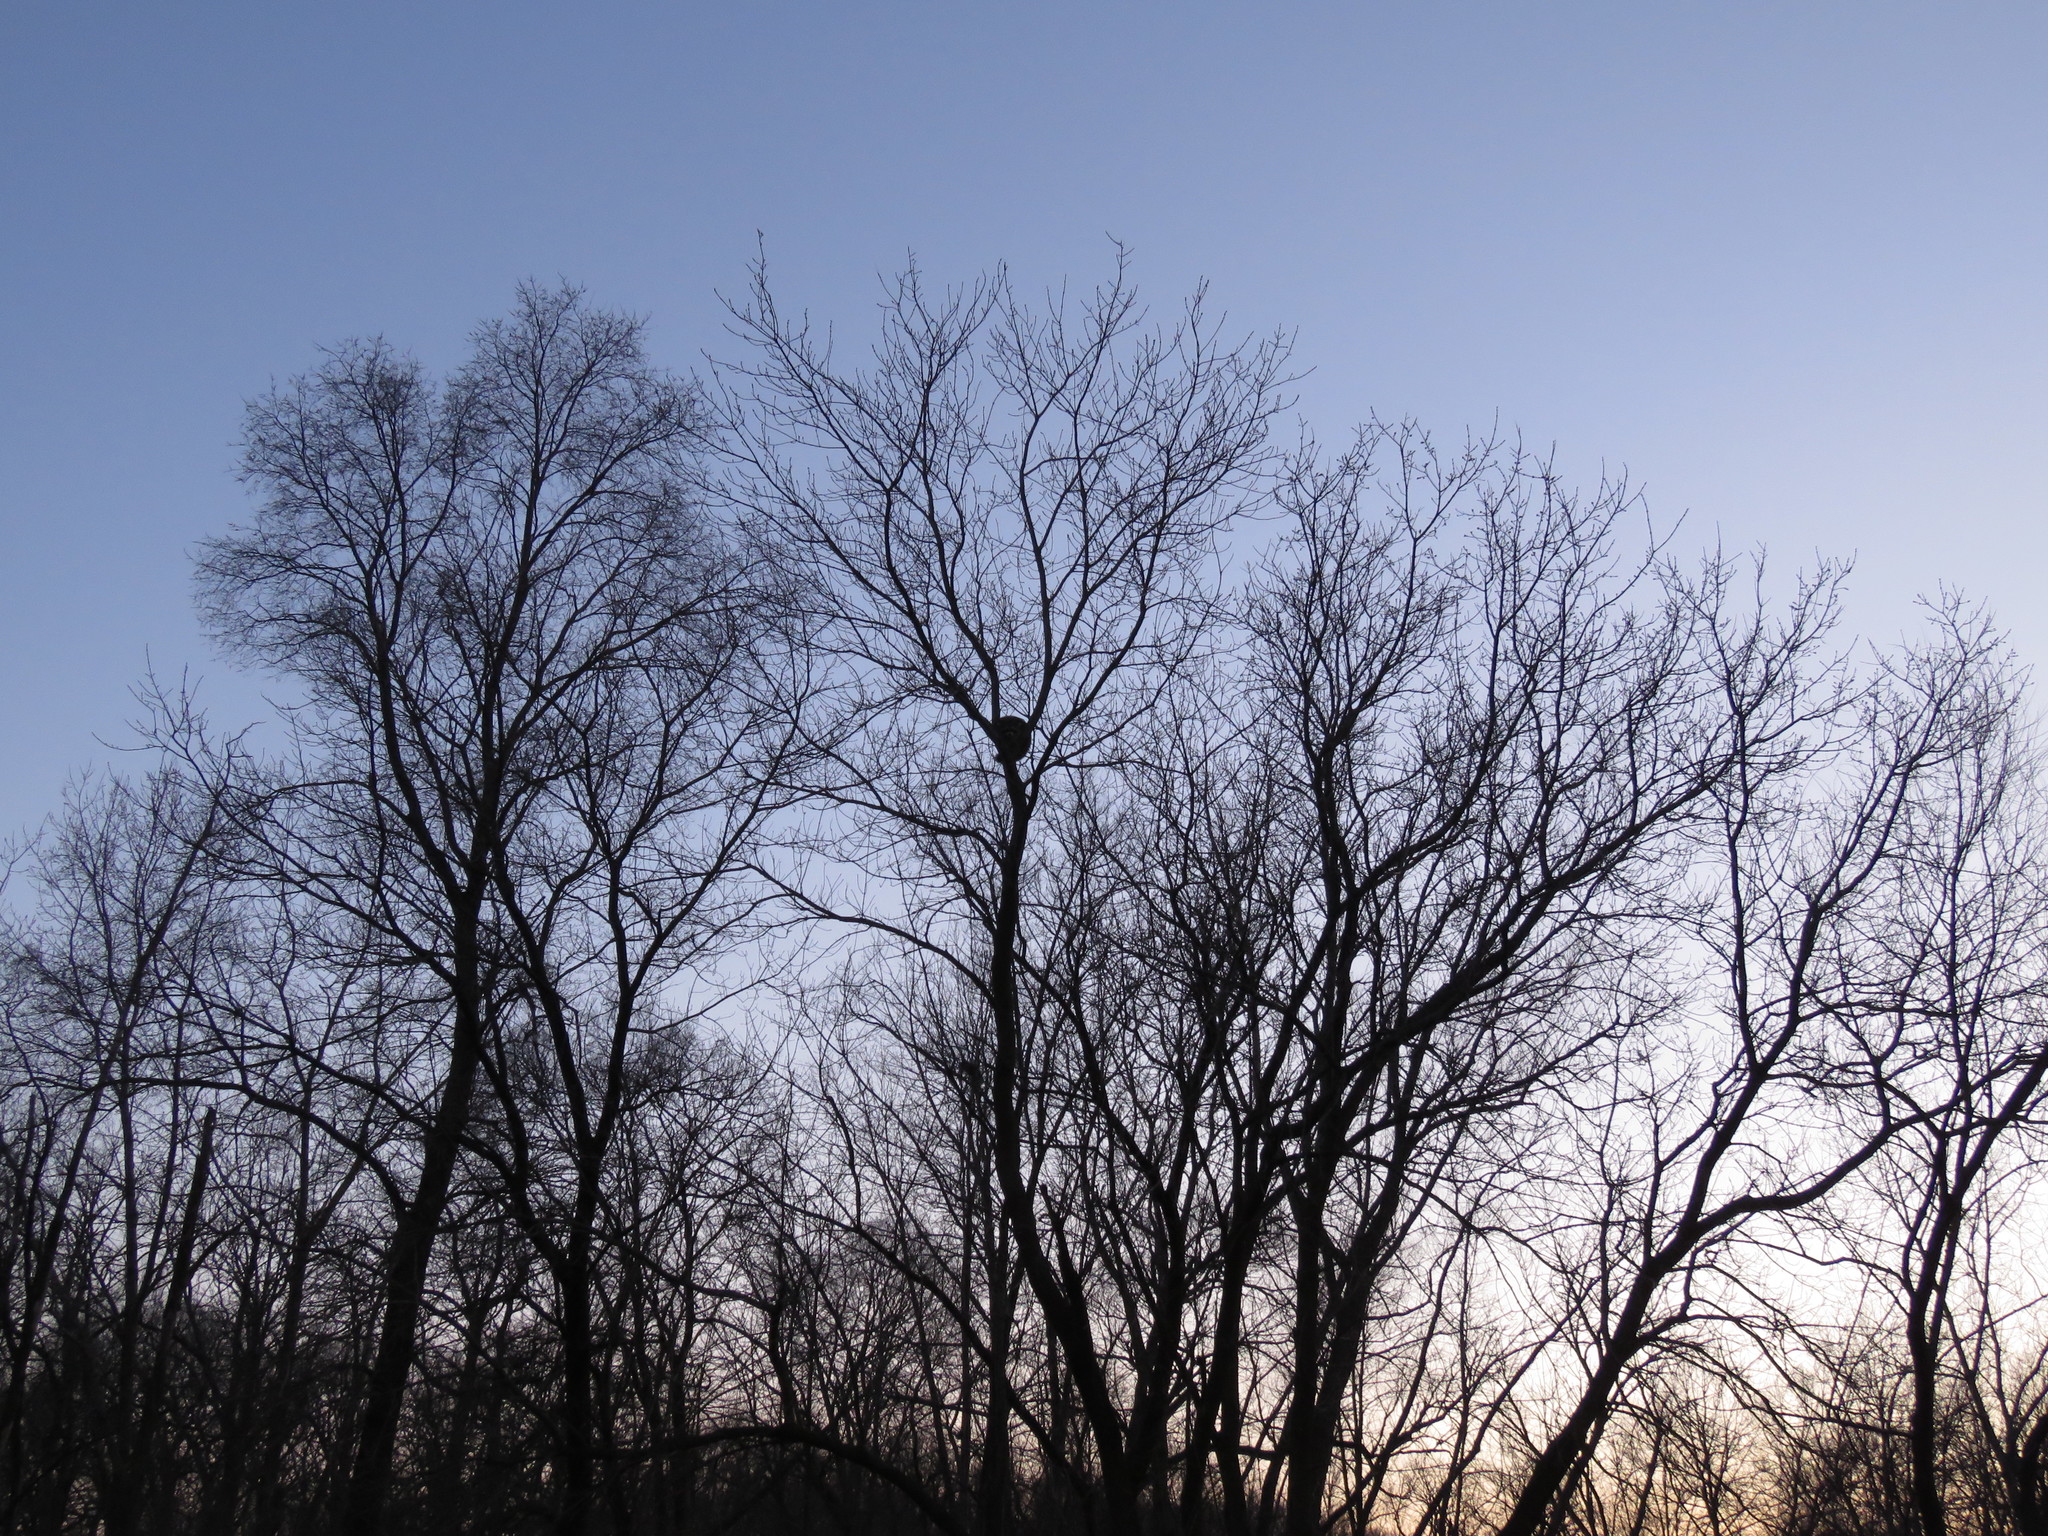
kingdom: Animalia
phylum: Chordata
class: Mammalia
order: Carnivora
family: Procyonidae
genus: Procyon
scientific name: Procyon lotor
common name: Raccoon
